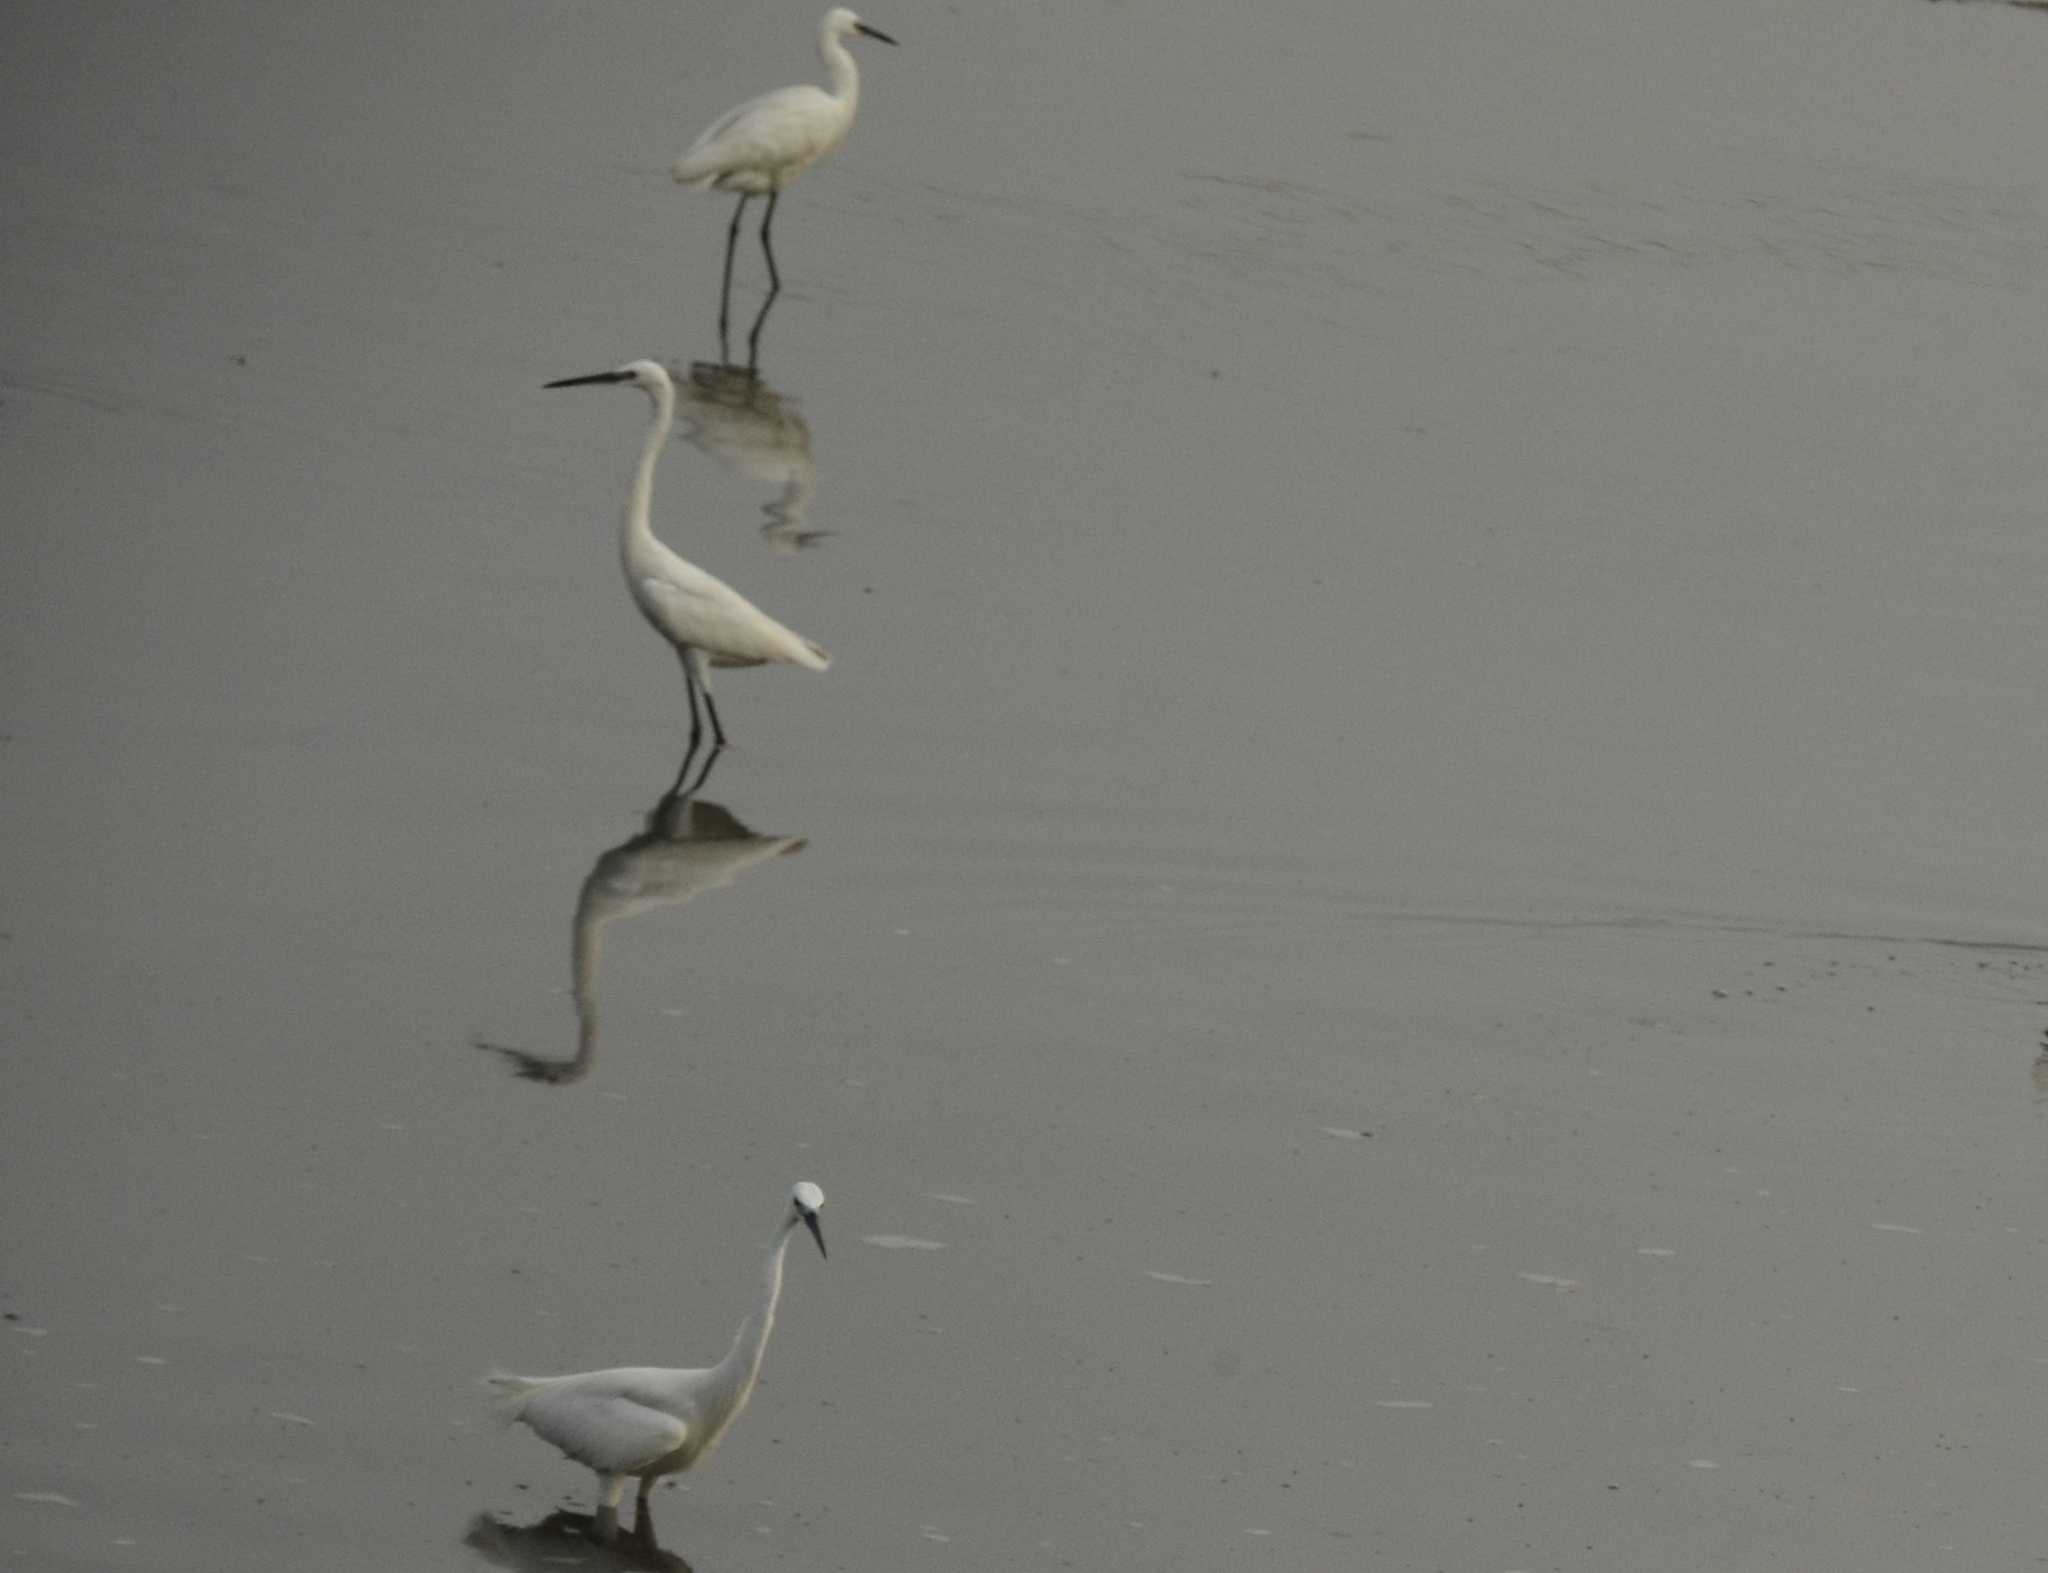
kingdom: Animalia
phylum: Chordata
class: Aves
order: Pelecaniformes
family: Ardeidae
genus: Egretta
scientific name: Egretta garzetta
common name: Little egret
